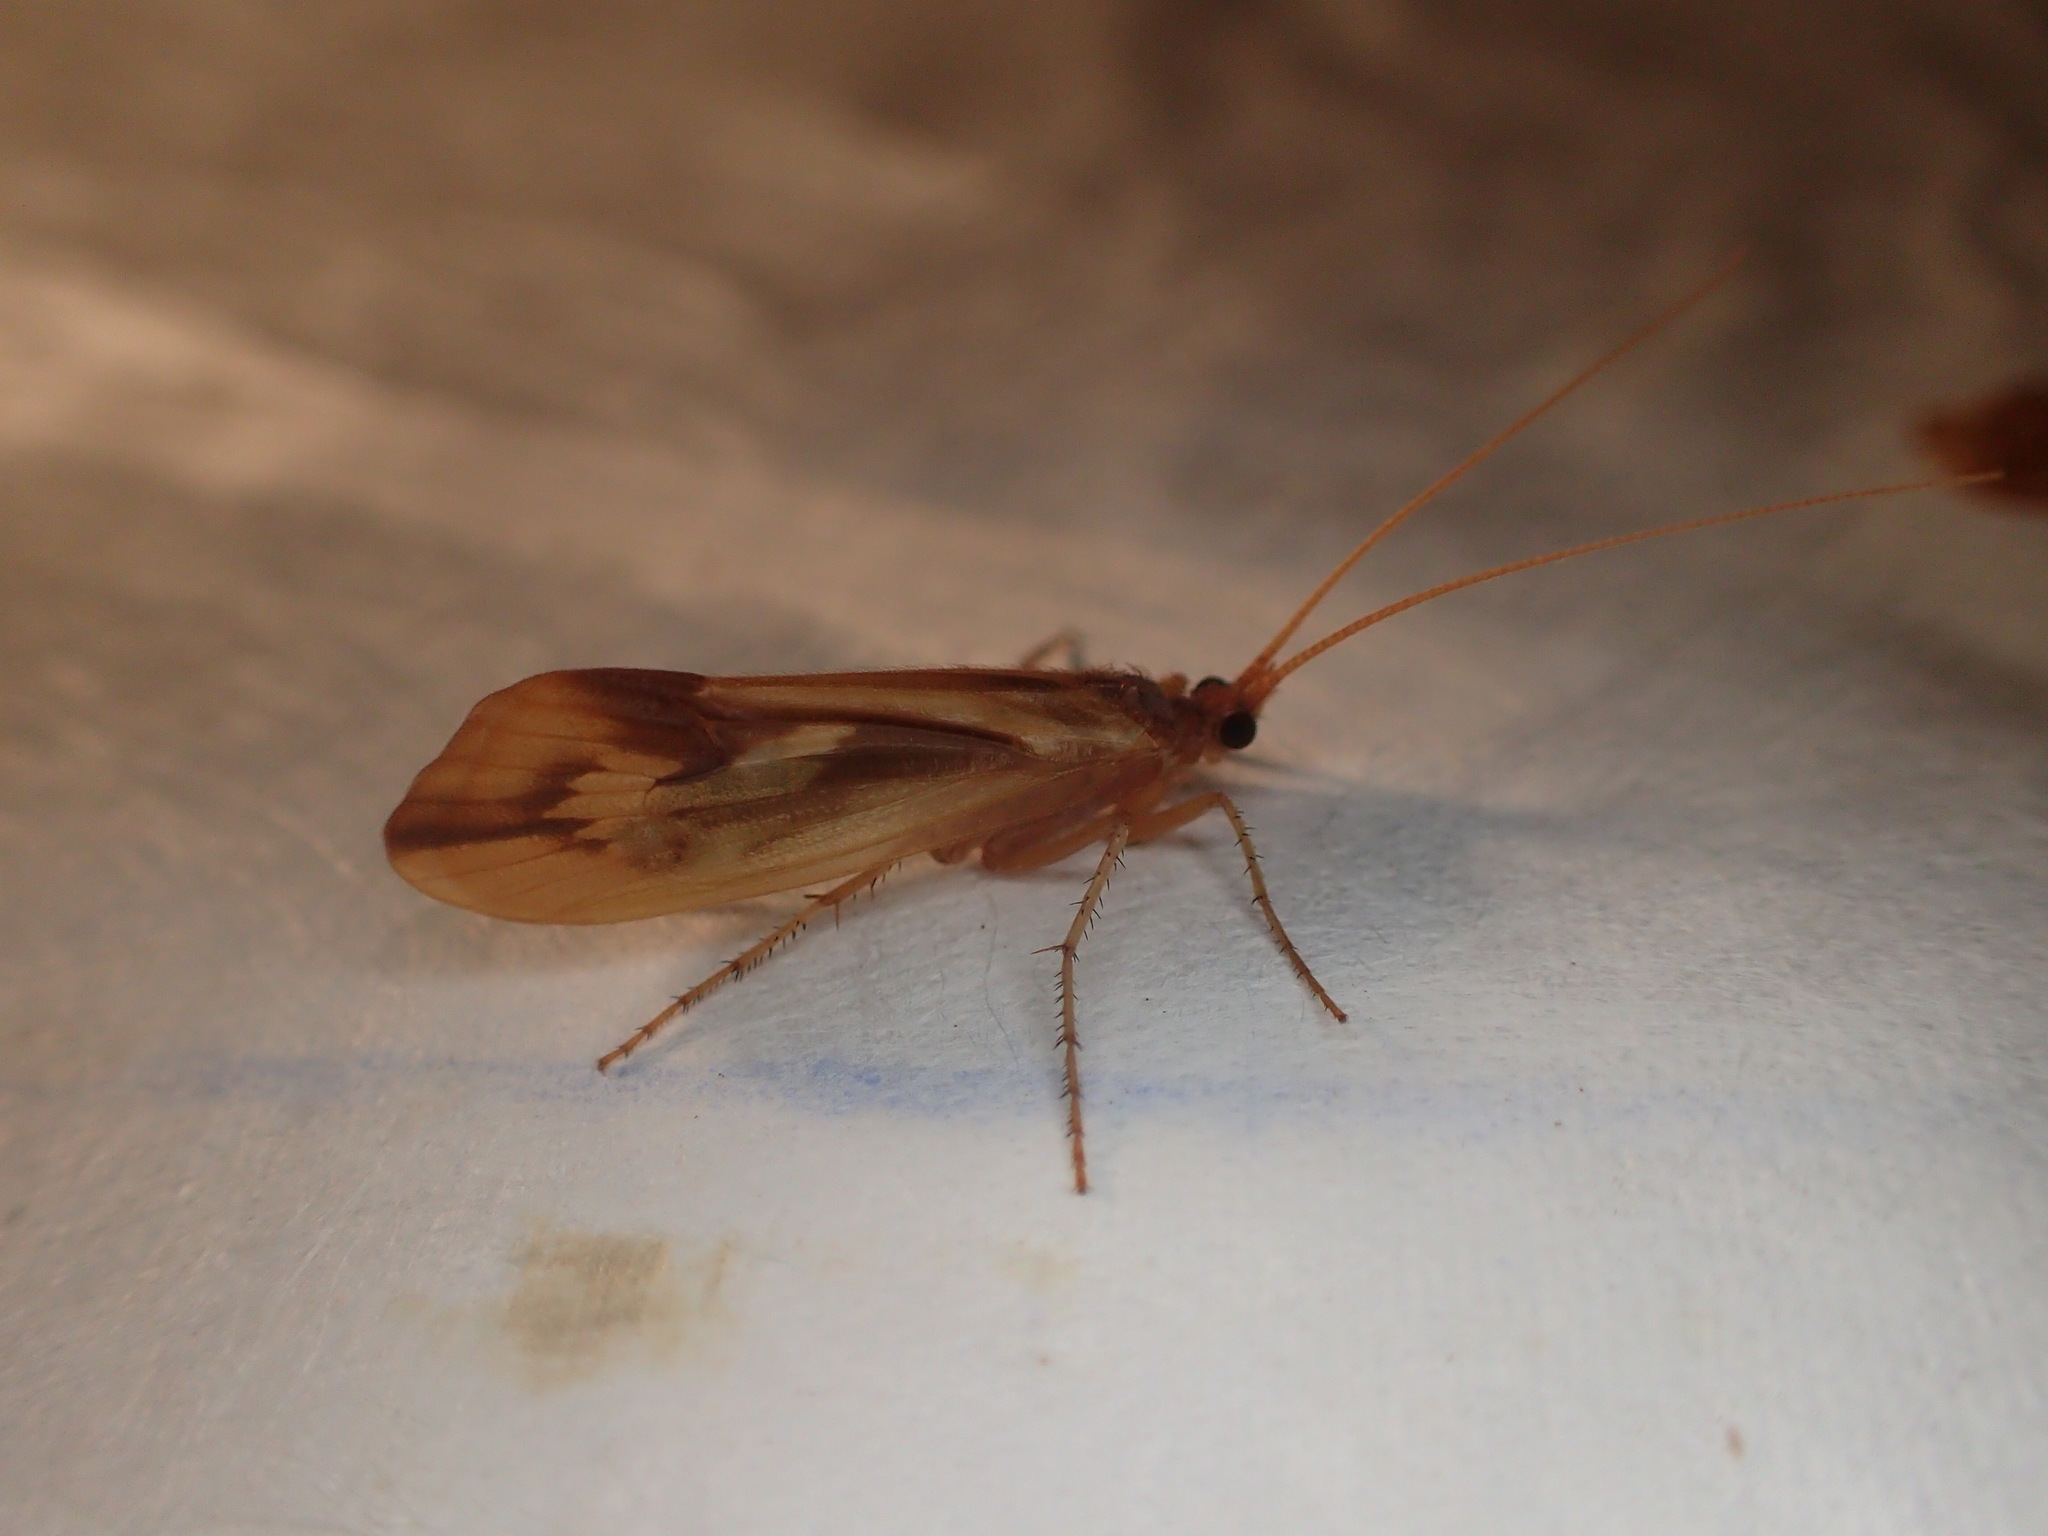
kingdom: Animalia
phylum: Arthropoda
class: Insecta
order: Trichoptera
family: Limnephilidae
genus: Platycentropus
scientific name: Platycentropus radiatus
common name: Chocolate-and-cream sedge
